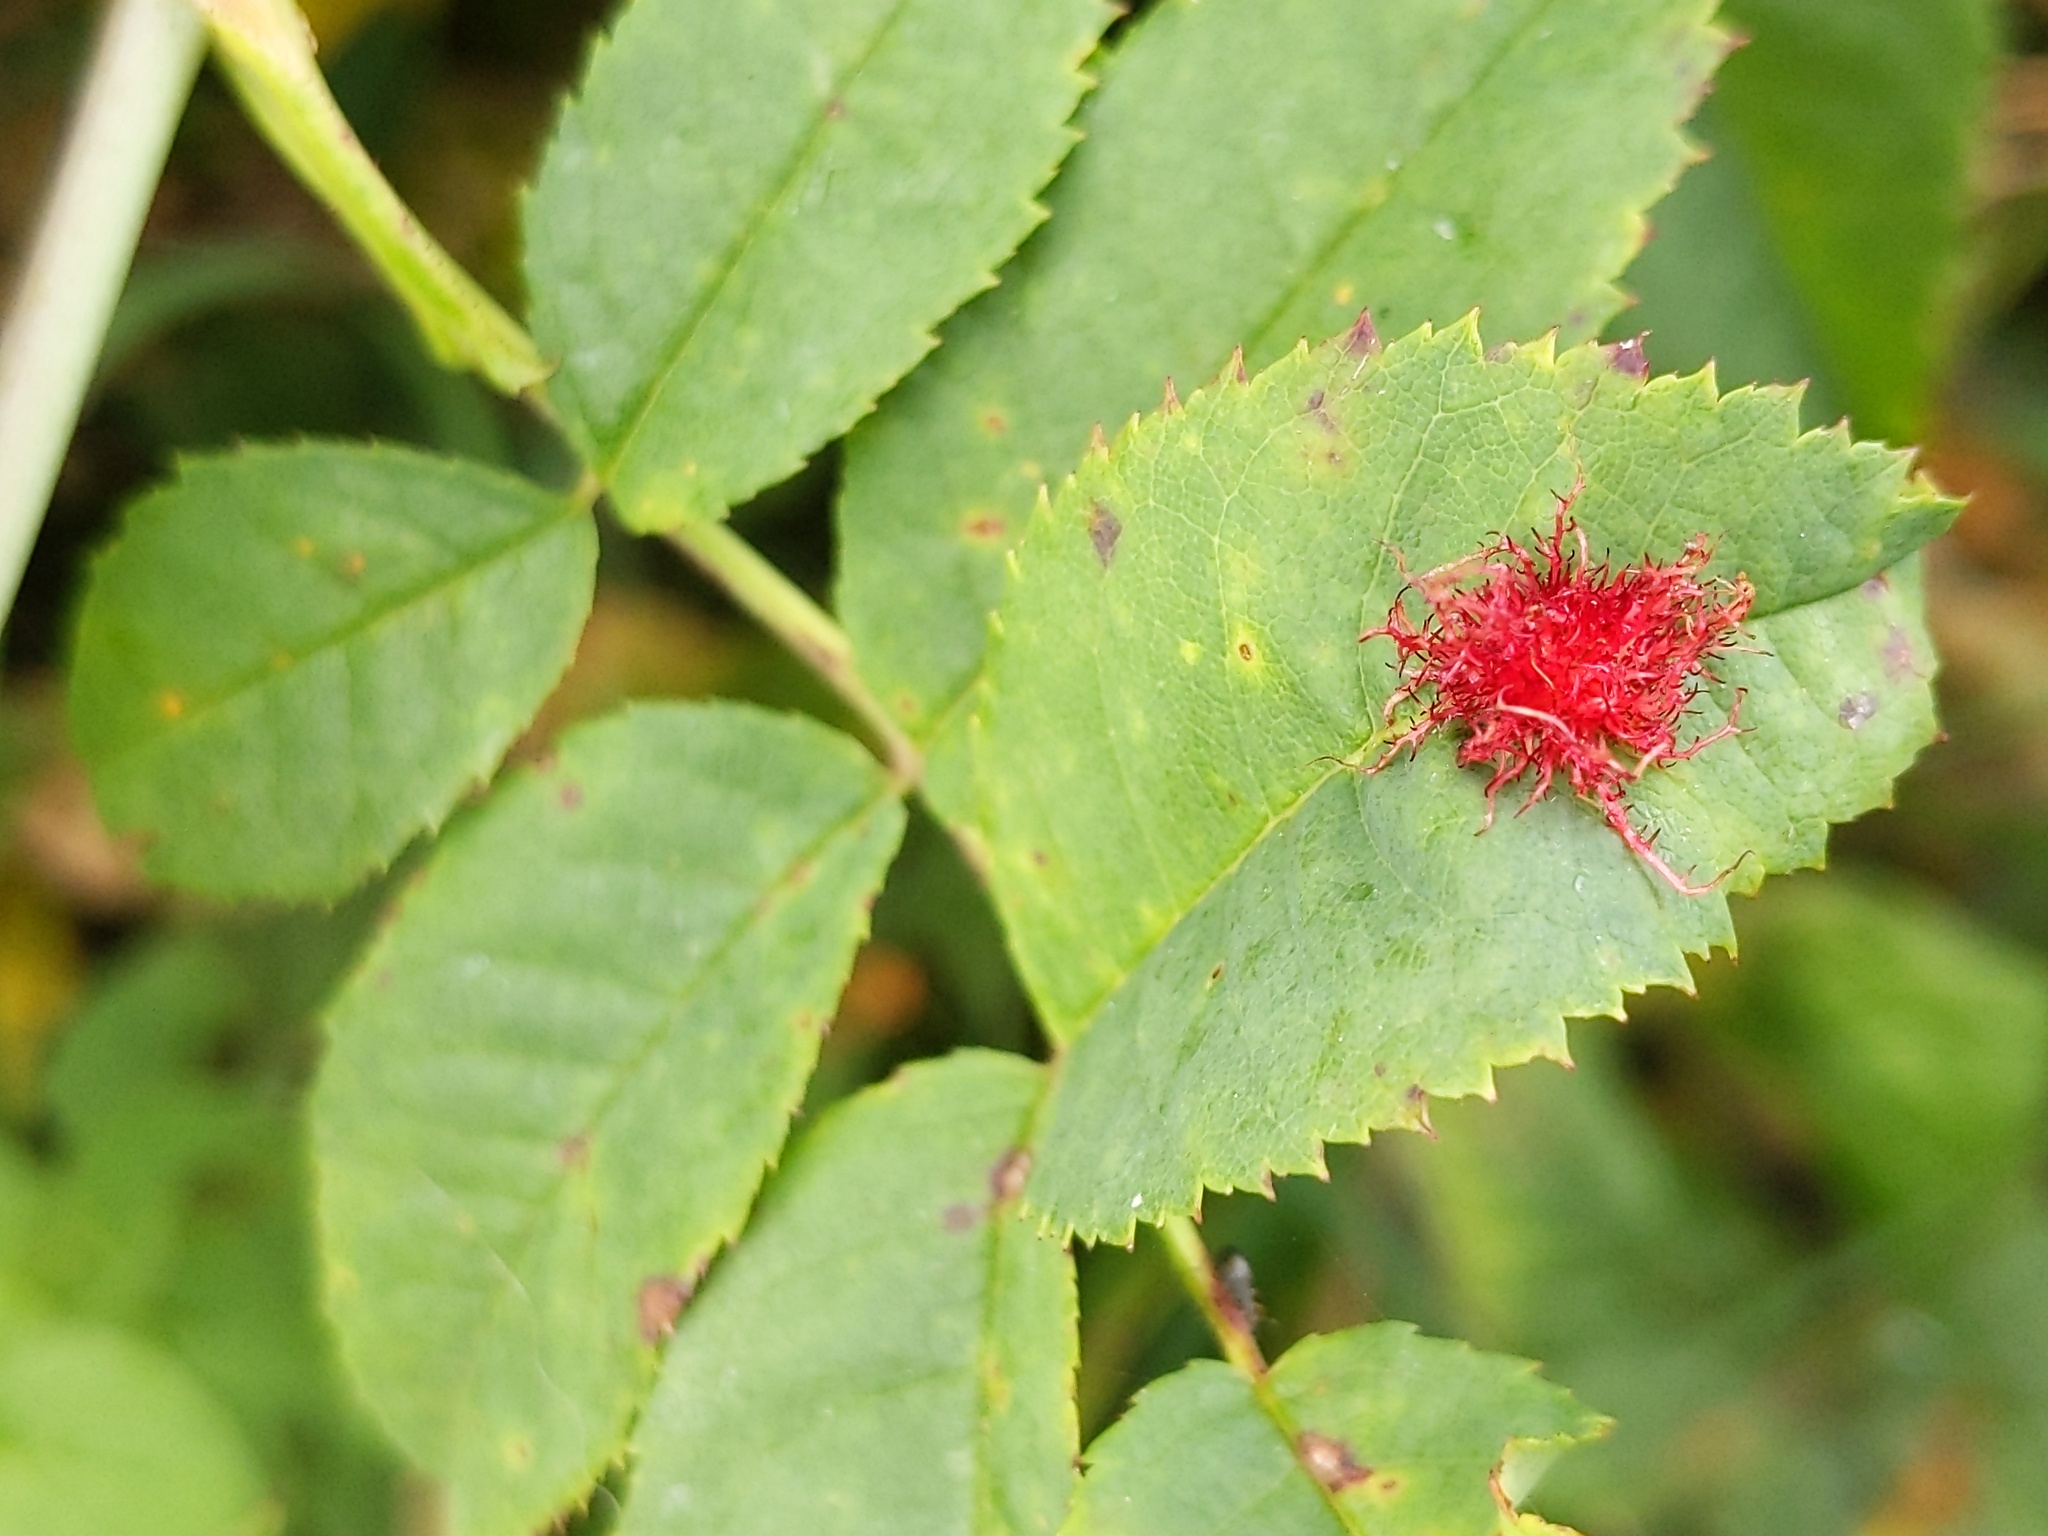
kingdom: Animalia
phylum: Arthropoda
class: Insecta
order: Hymenoptera
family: Cynipidae
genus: Diplolepis
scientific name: Diplolepis rosae
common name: Bedeguar gall
